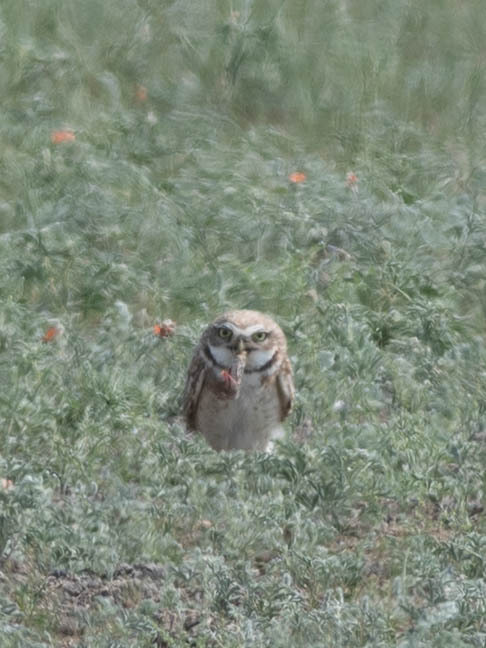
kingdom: Animalia
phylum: Chordata
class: Aves
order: Strigiformes
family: Strigidae
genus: Athene
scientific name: Athene cunicularia
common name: Burrowing owl
